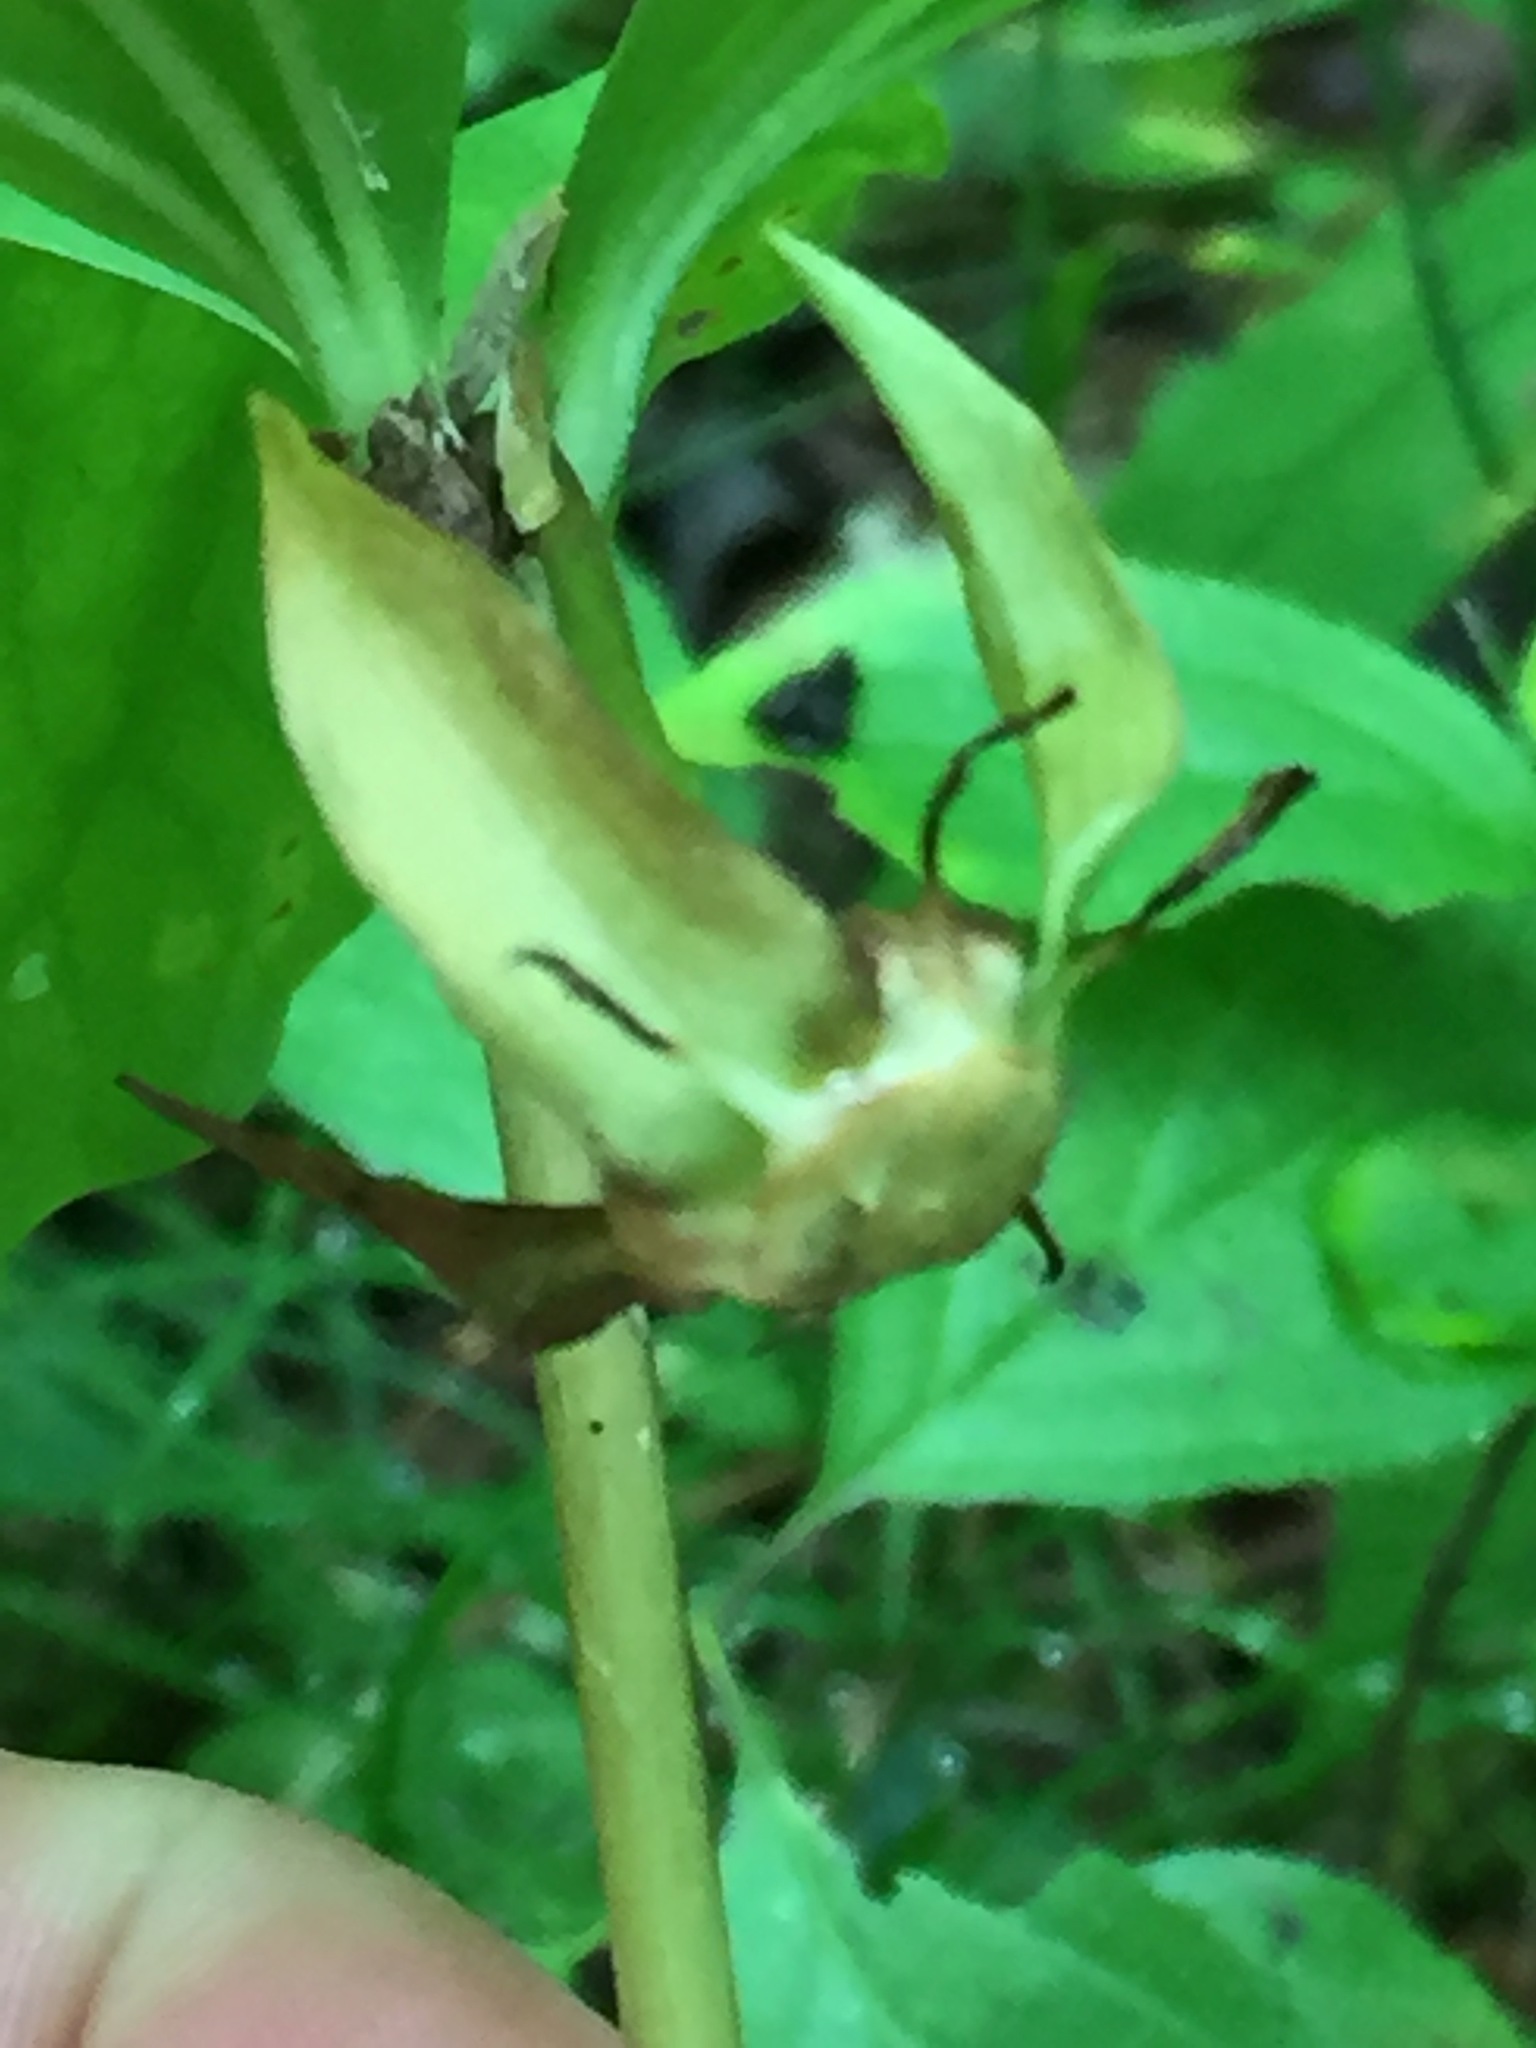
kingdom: Plantae
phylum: Tracheophyta
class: Liliopsida
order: Liliales
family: Melanthiaceae
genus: Trillium
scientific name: Trillium cernuum
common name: Nodding trillium
